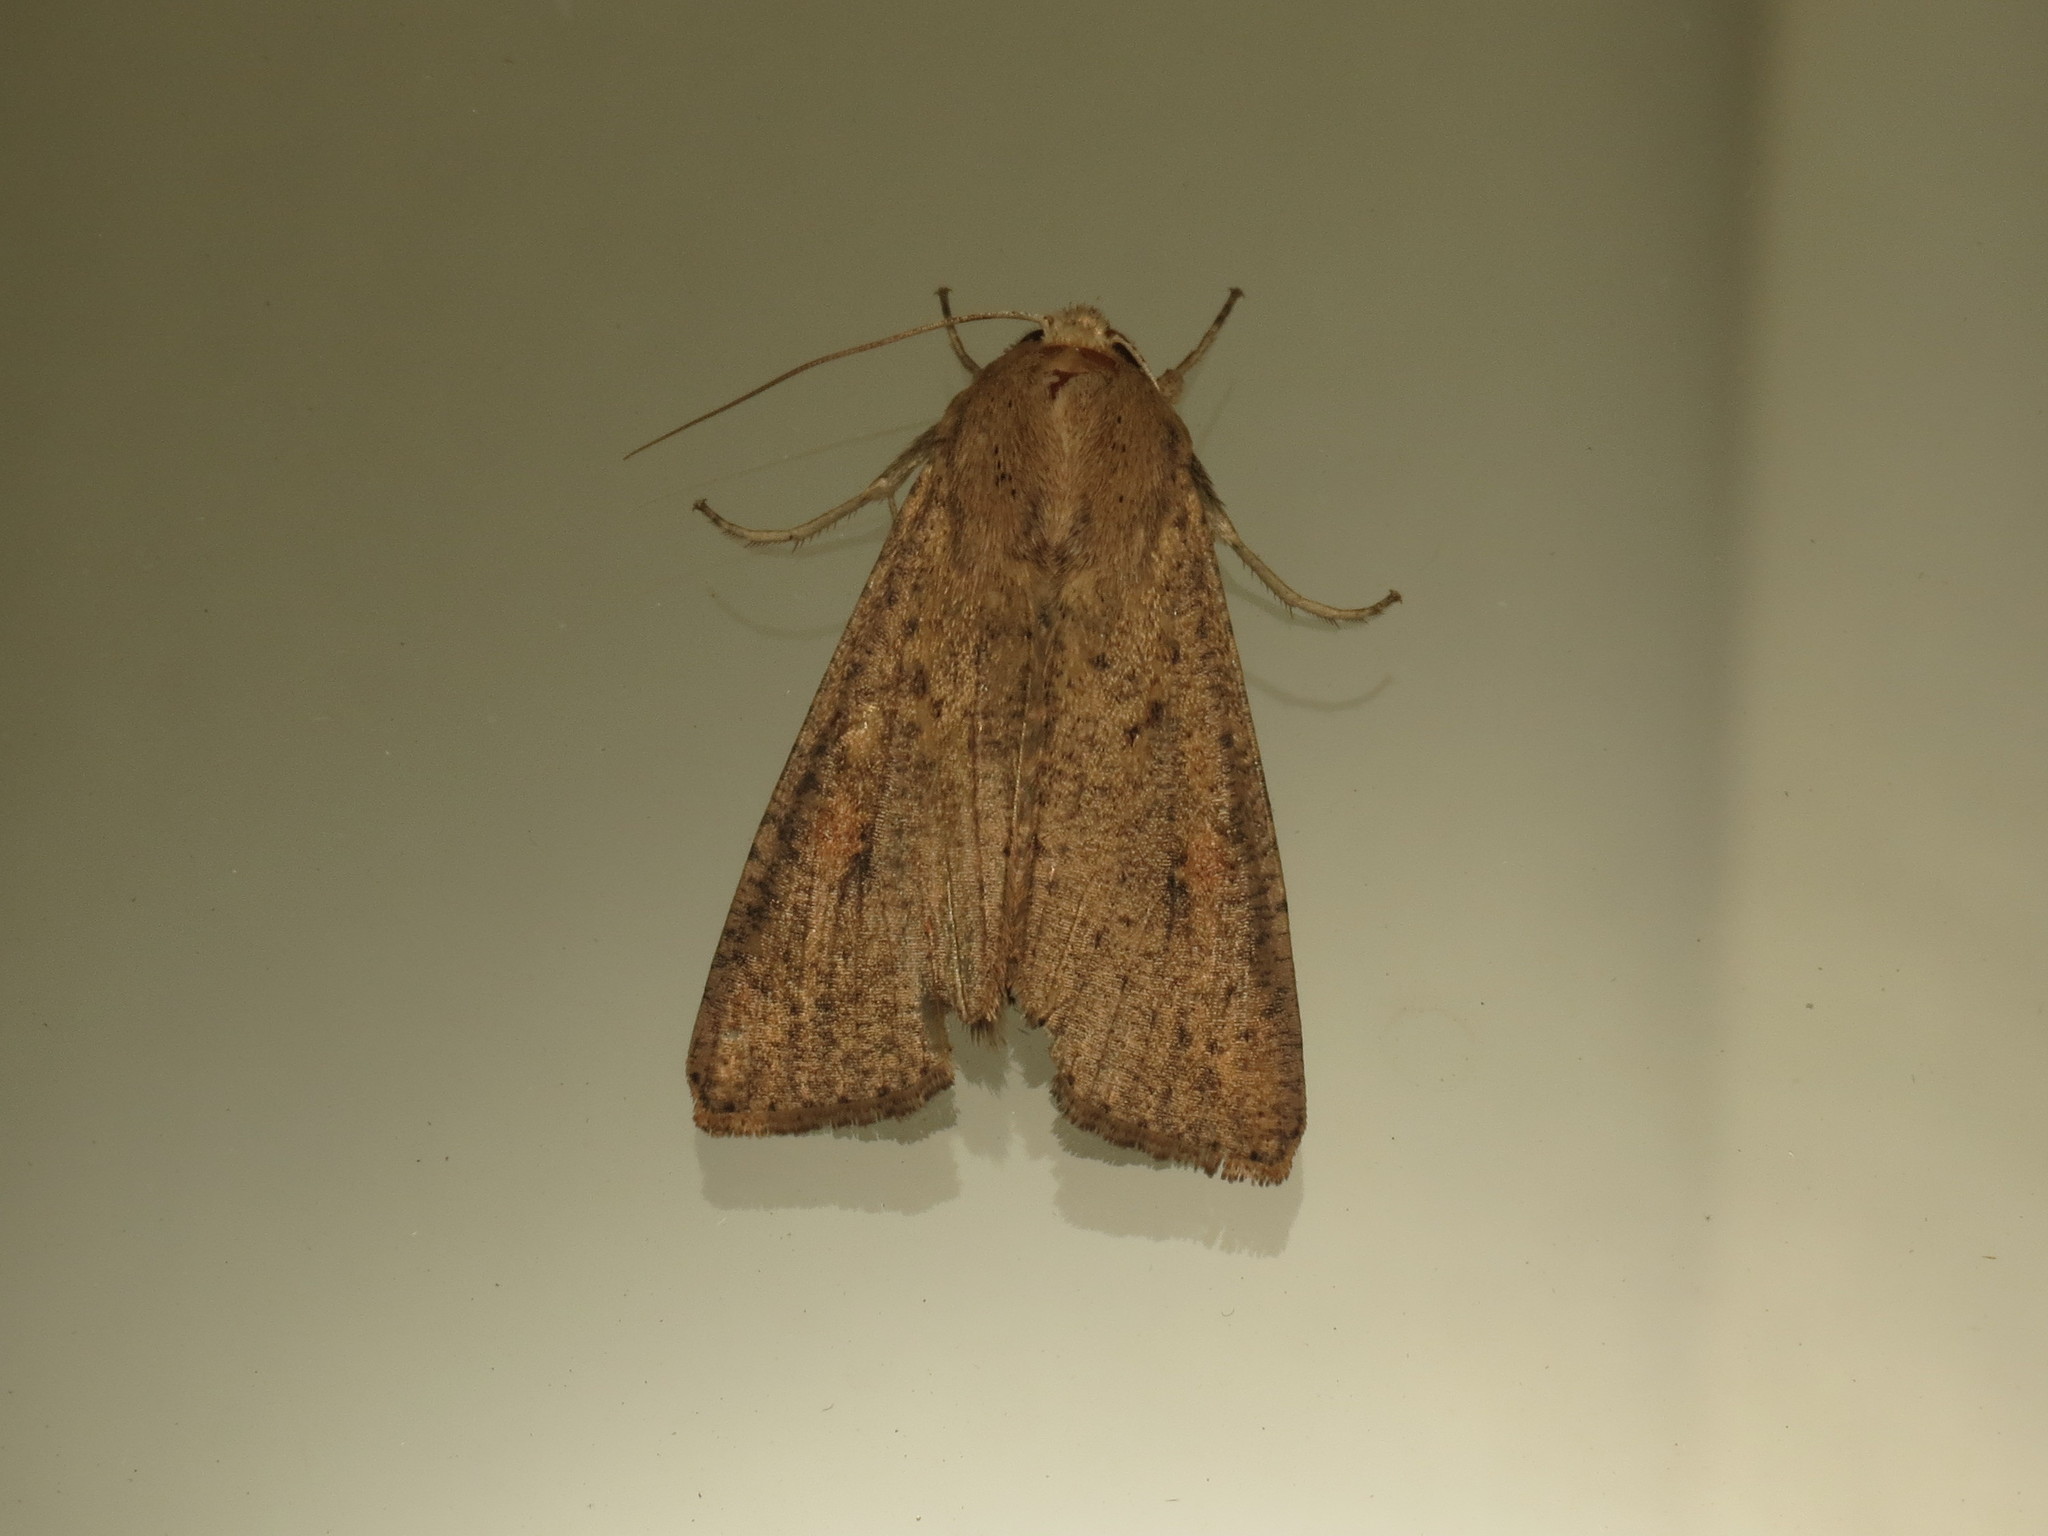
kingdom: Animalia
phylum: Arthropoda
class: Insecta
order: Lepidoptera
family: Noctuidae
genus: Mythimna
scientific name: Mythimna convecta
